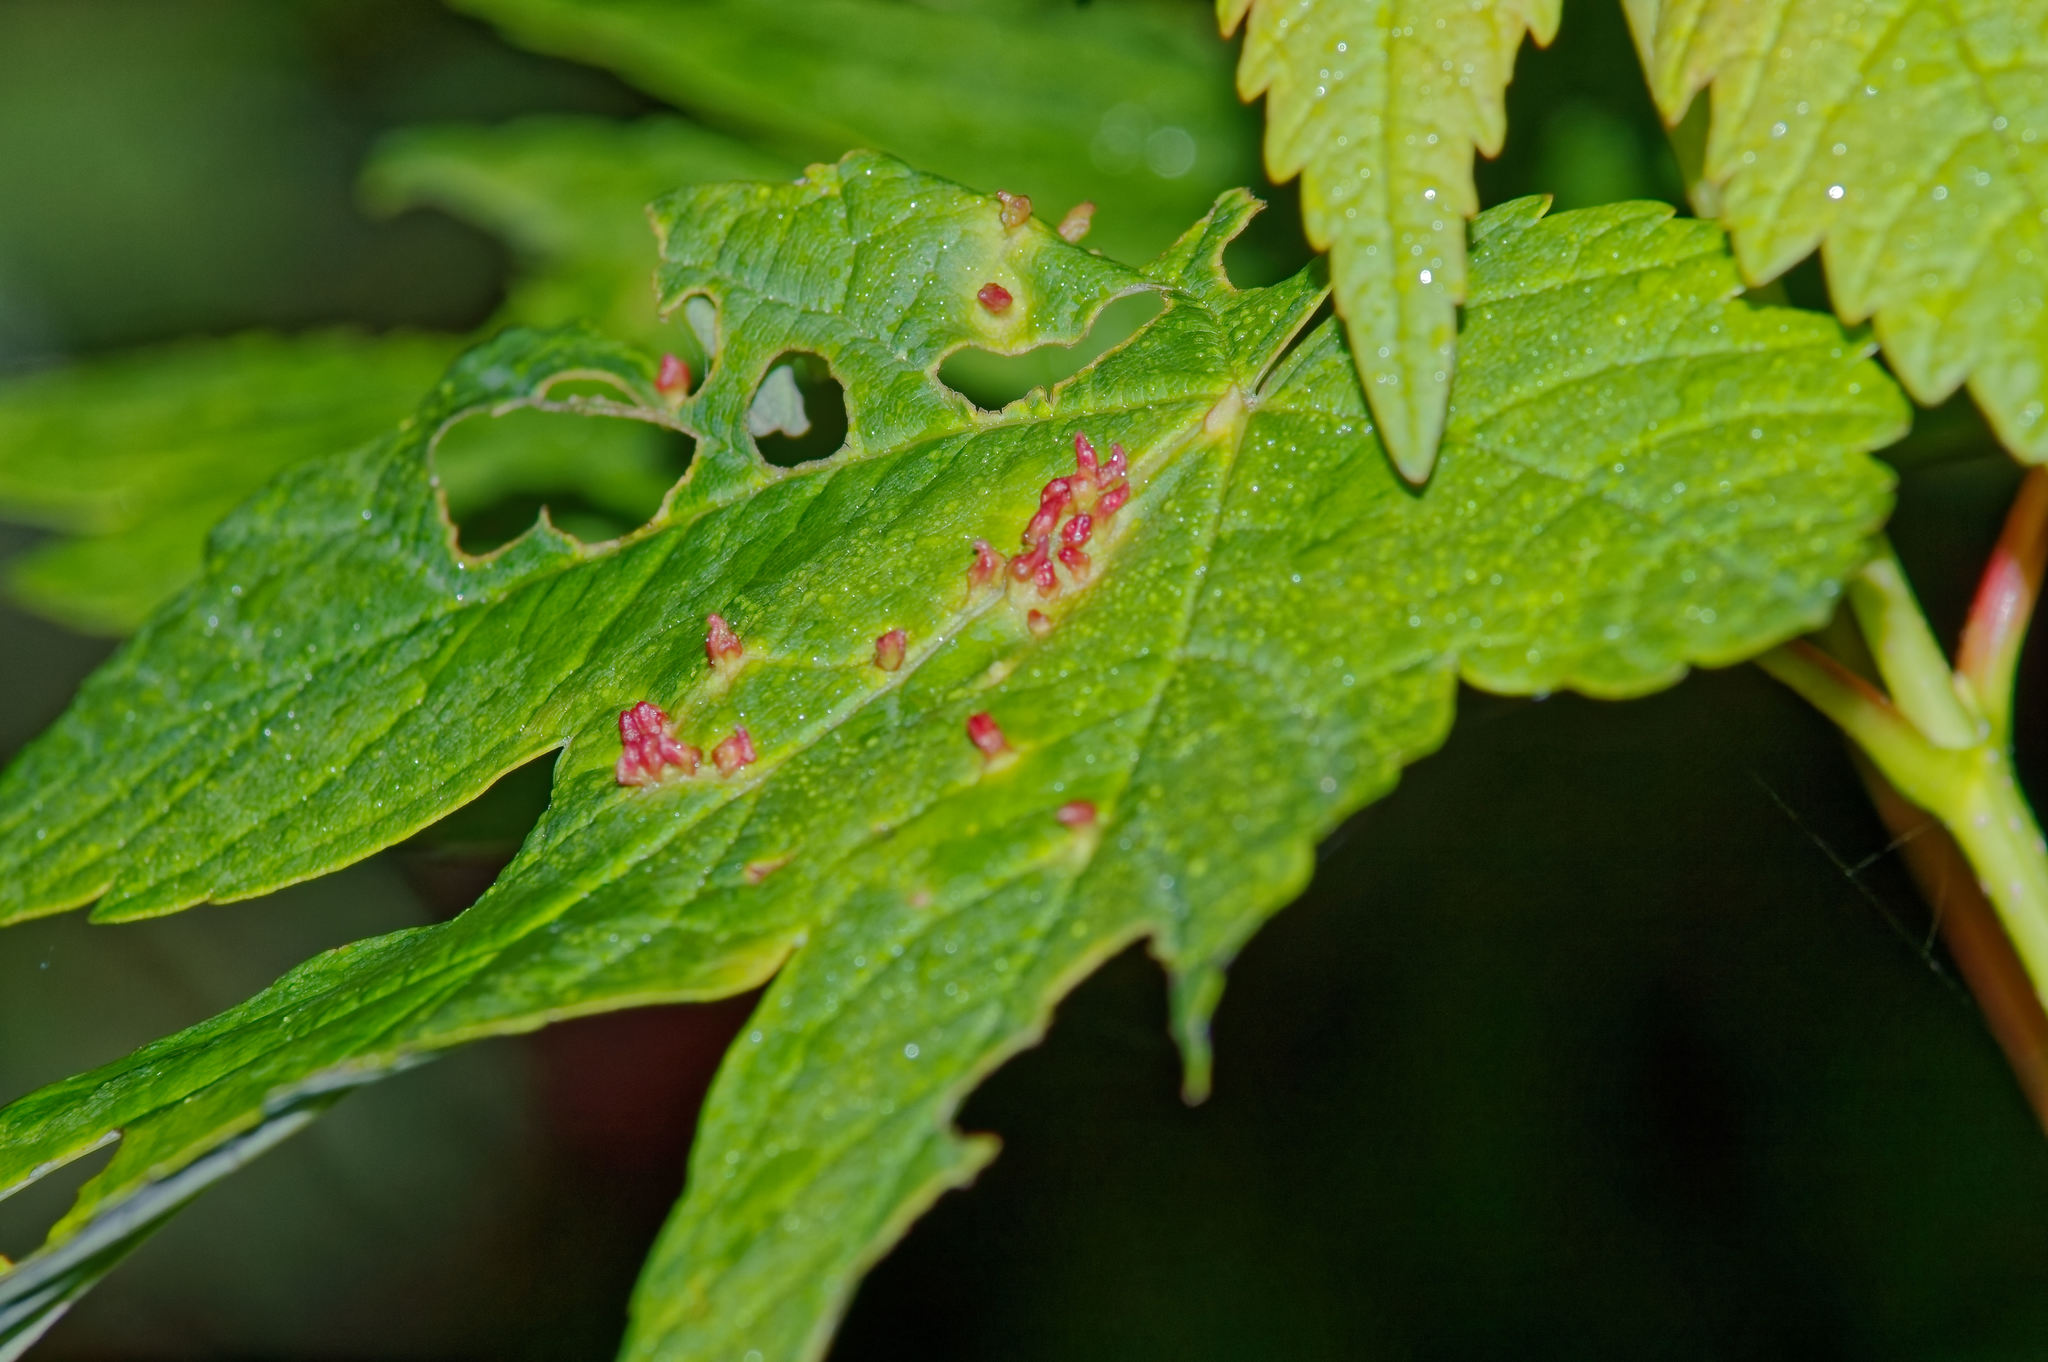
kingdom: Animalia
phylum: Arthropoda
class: Arachnida
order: Trombidiformes
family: Eriophyidae
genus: Aceria
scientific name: Aceria cephaloneus
